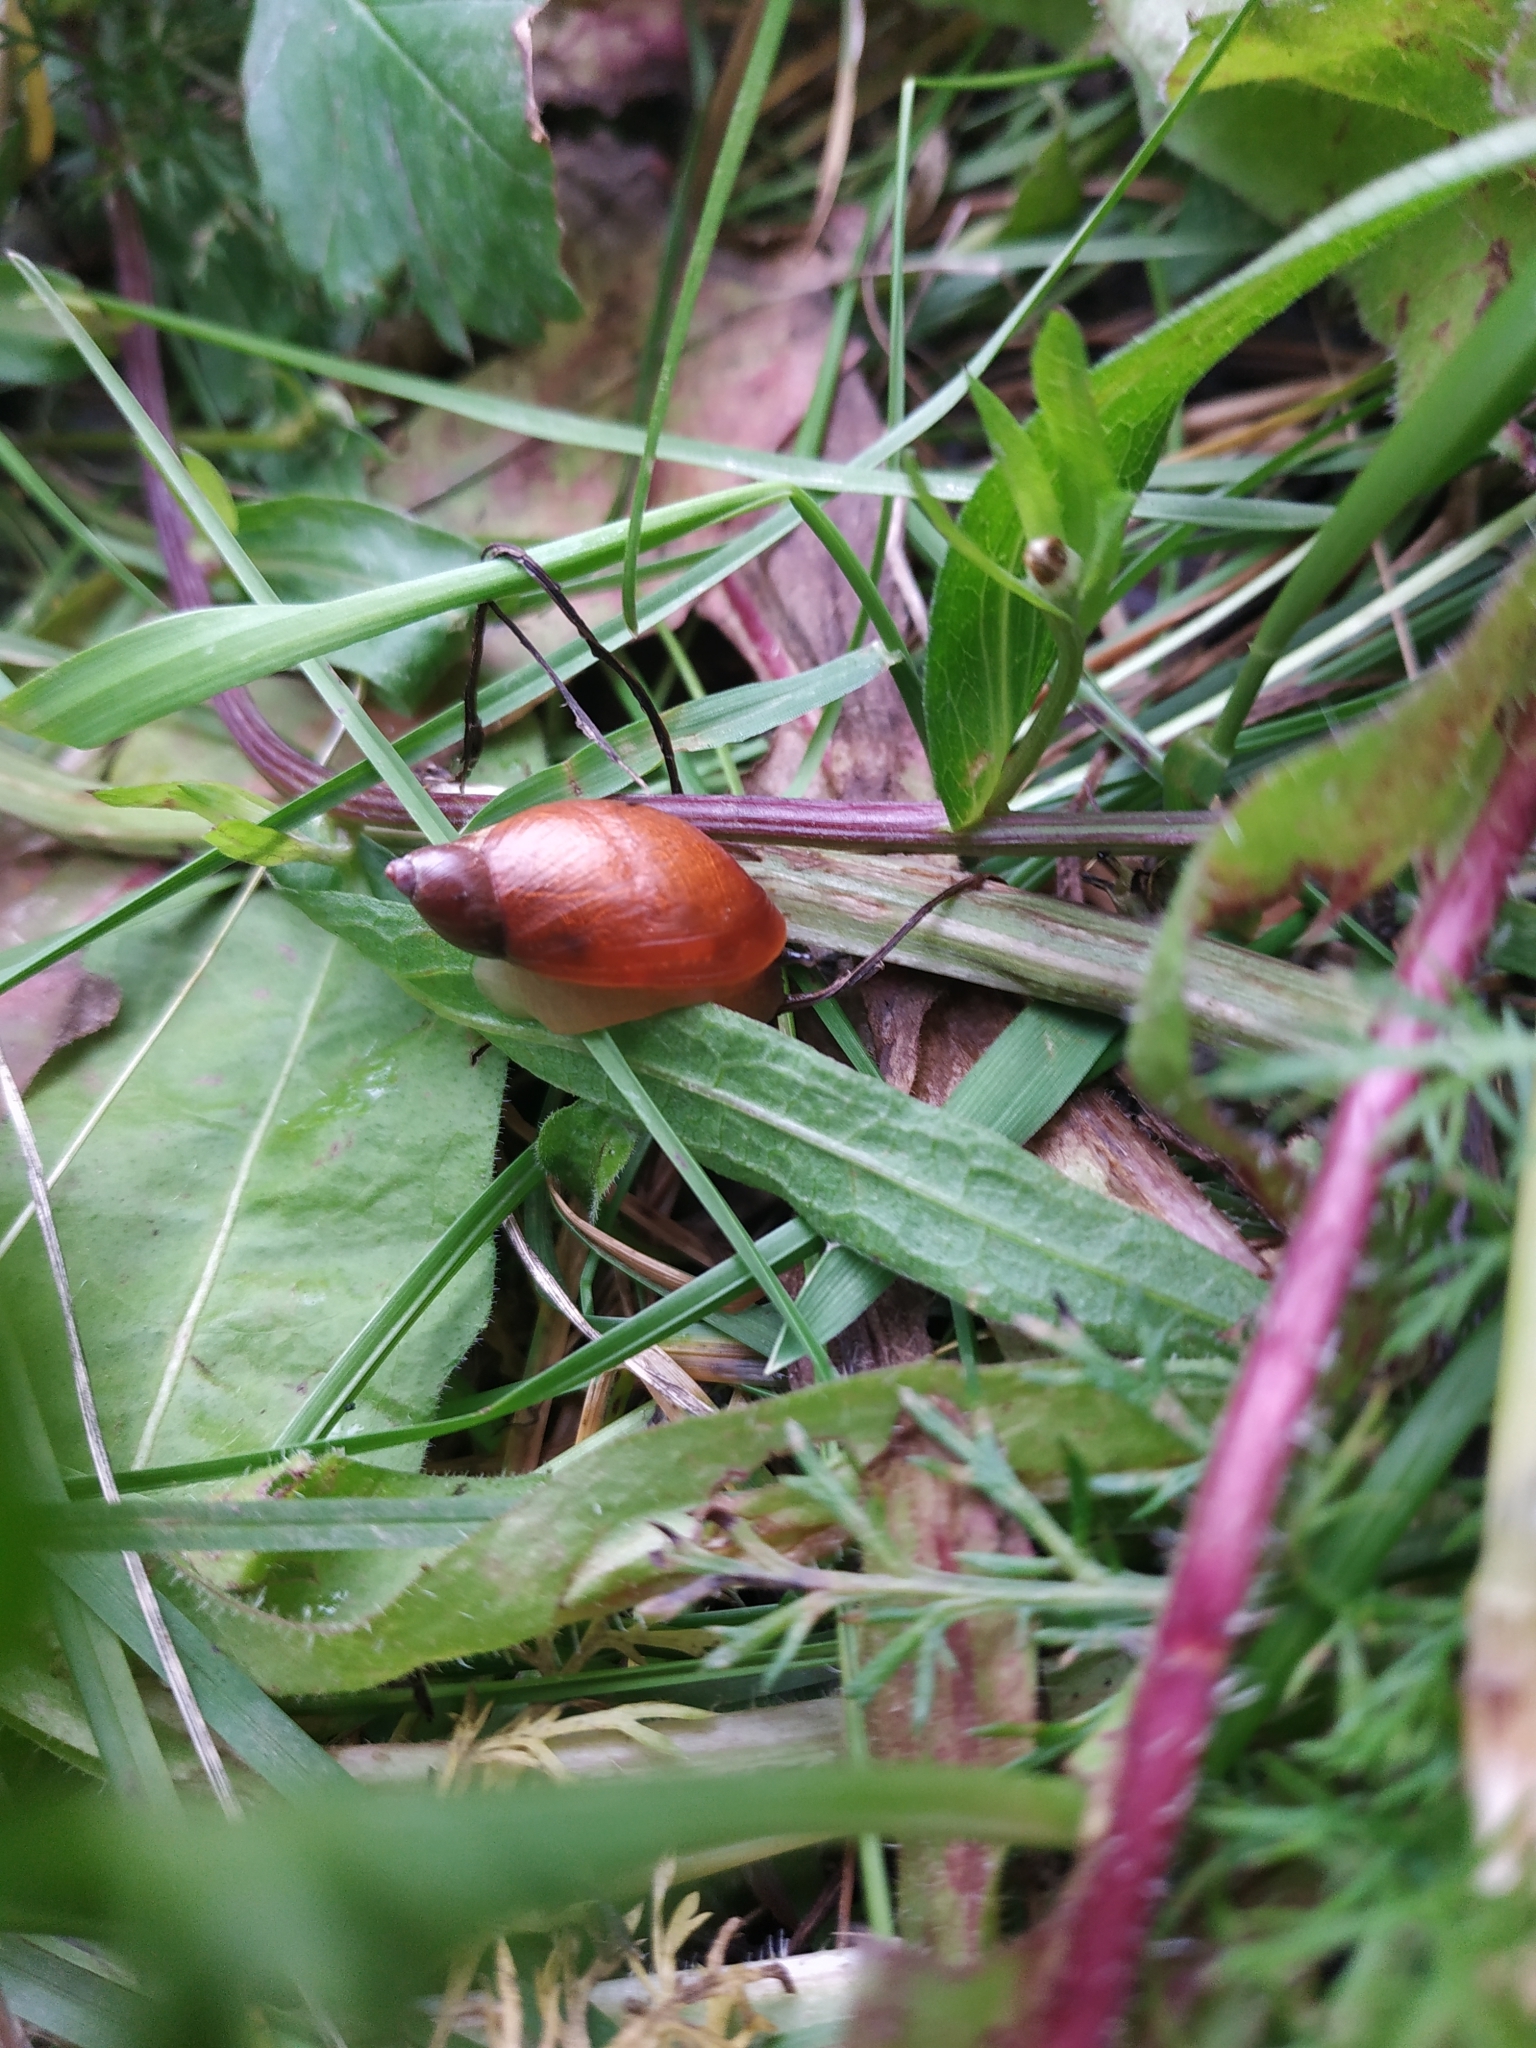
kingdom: Animalia
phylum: Mollusca
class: Gastropoda
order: Stylommatophora
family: Succineidae
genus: Succinea
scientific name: Succinea putris
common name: European ambersnail
